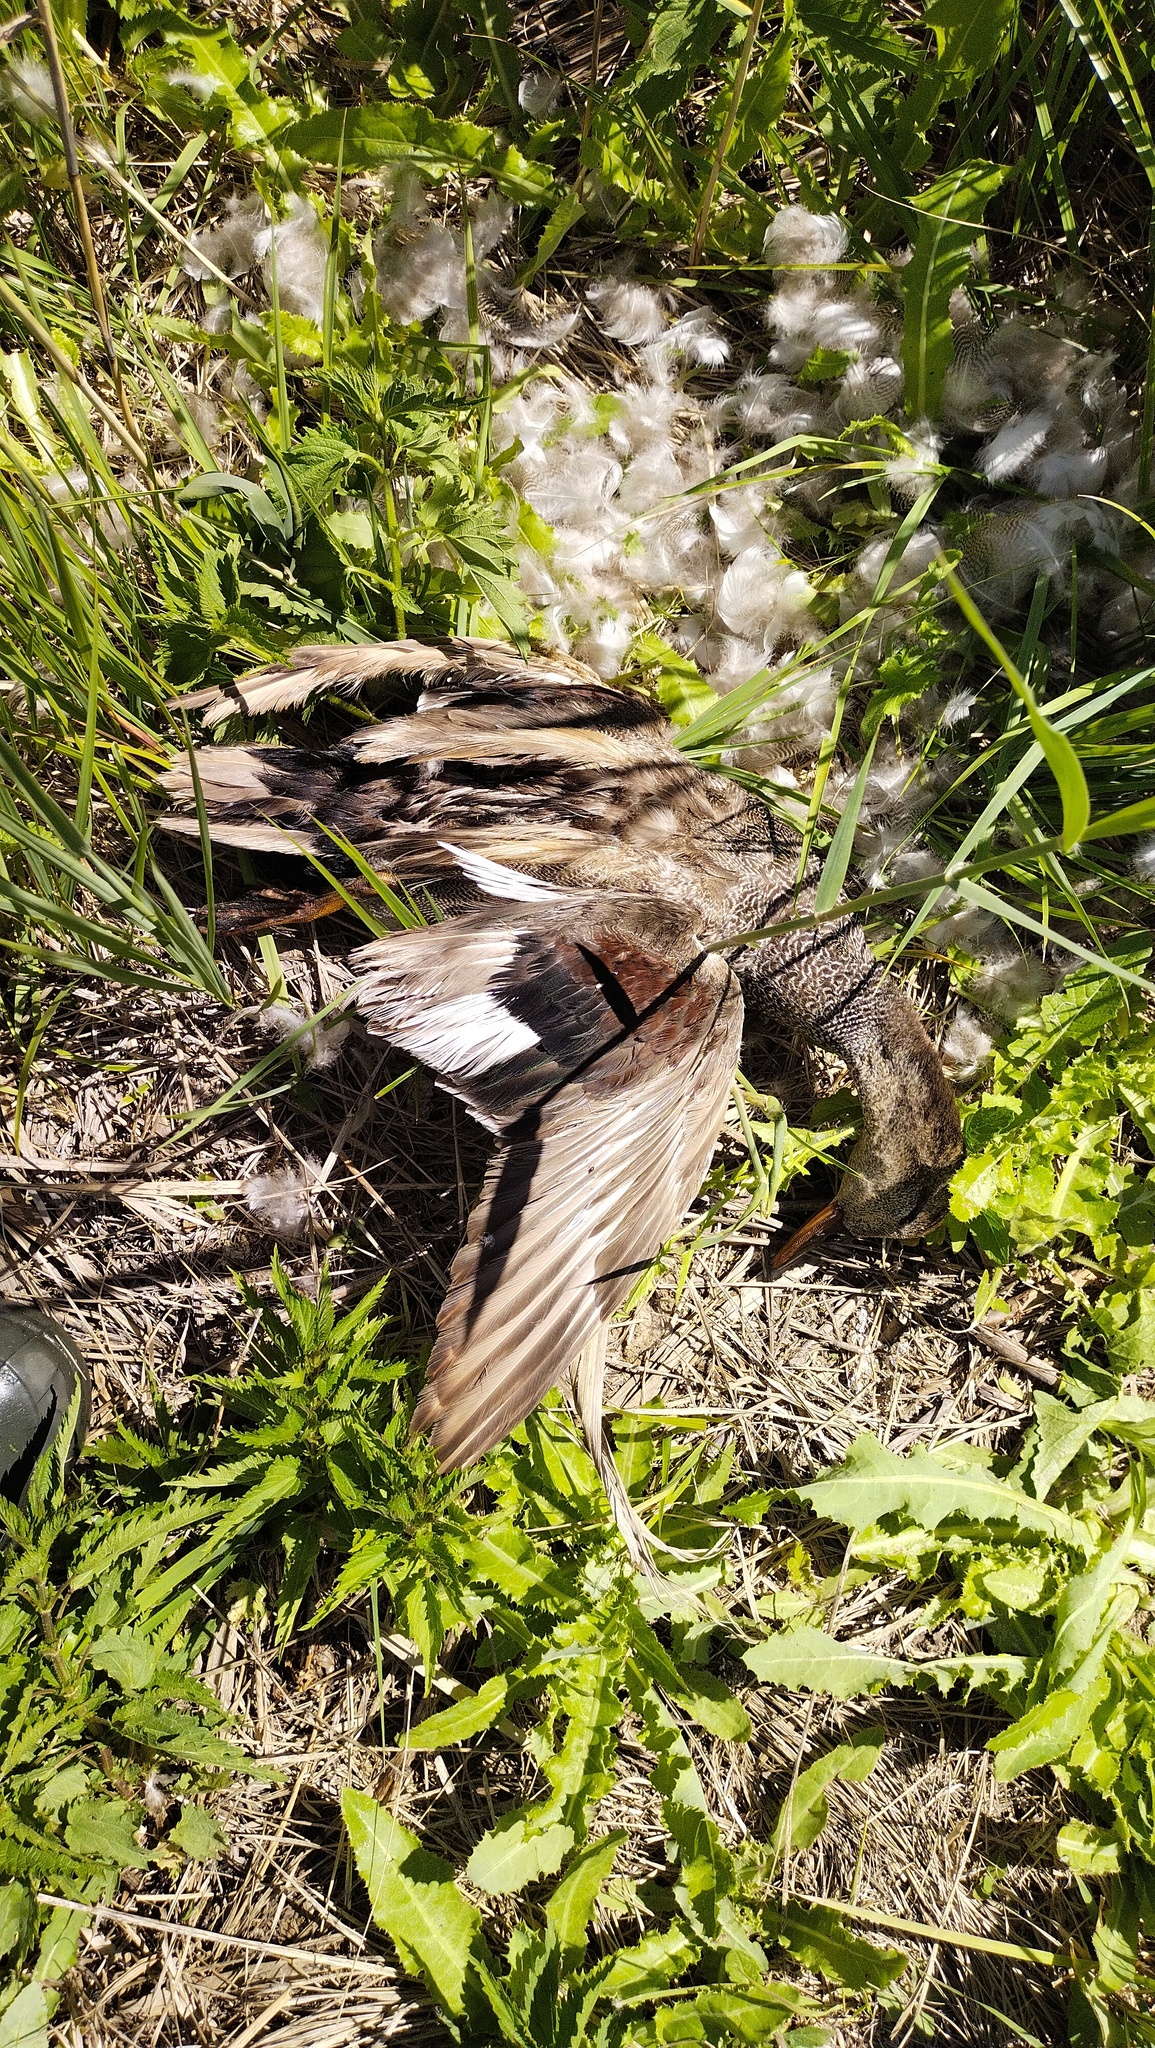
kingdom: Animalia
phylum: Chordata
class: Aves
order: Anseriformes
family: Anatidae
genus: Mareca
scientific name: Mareca strepera
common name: Gadwall
